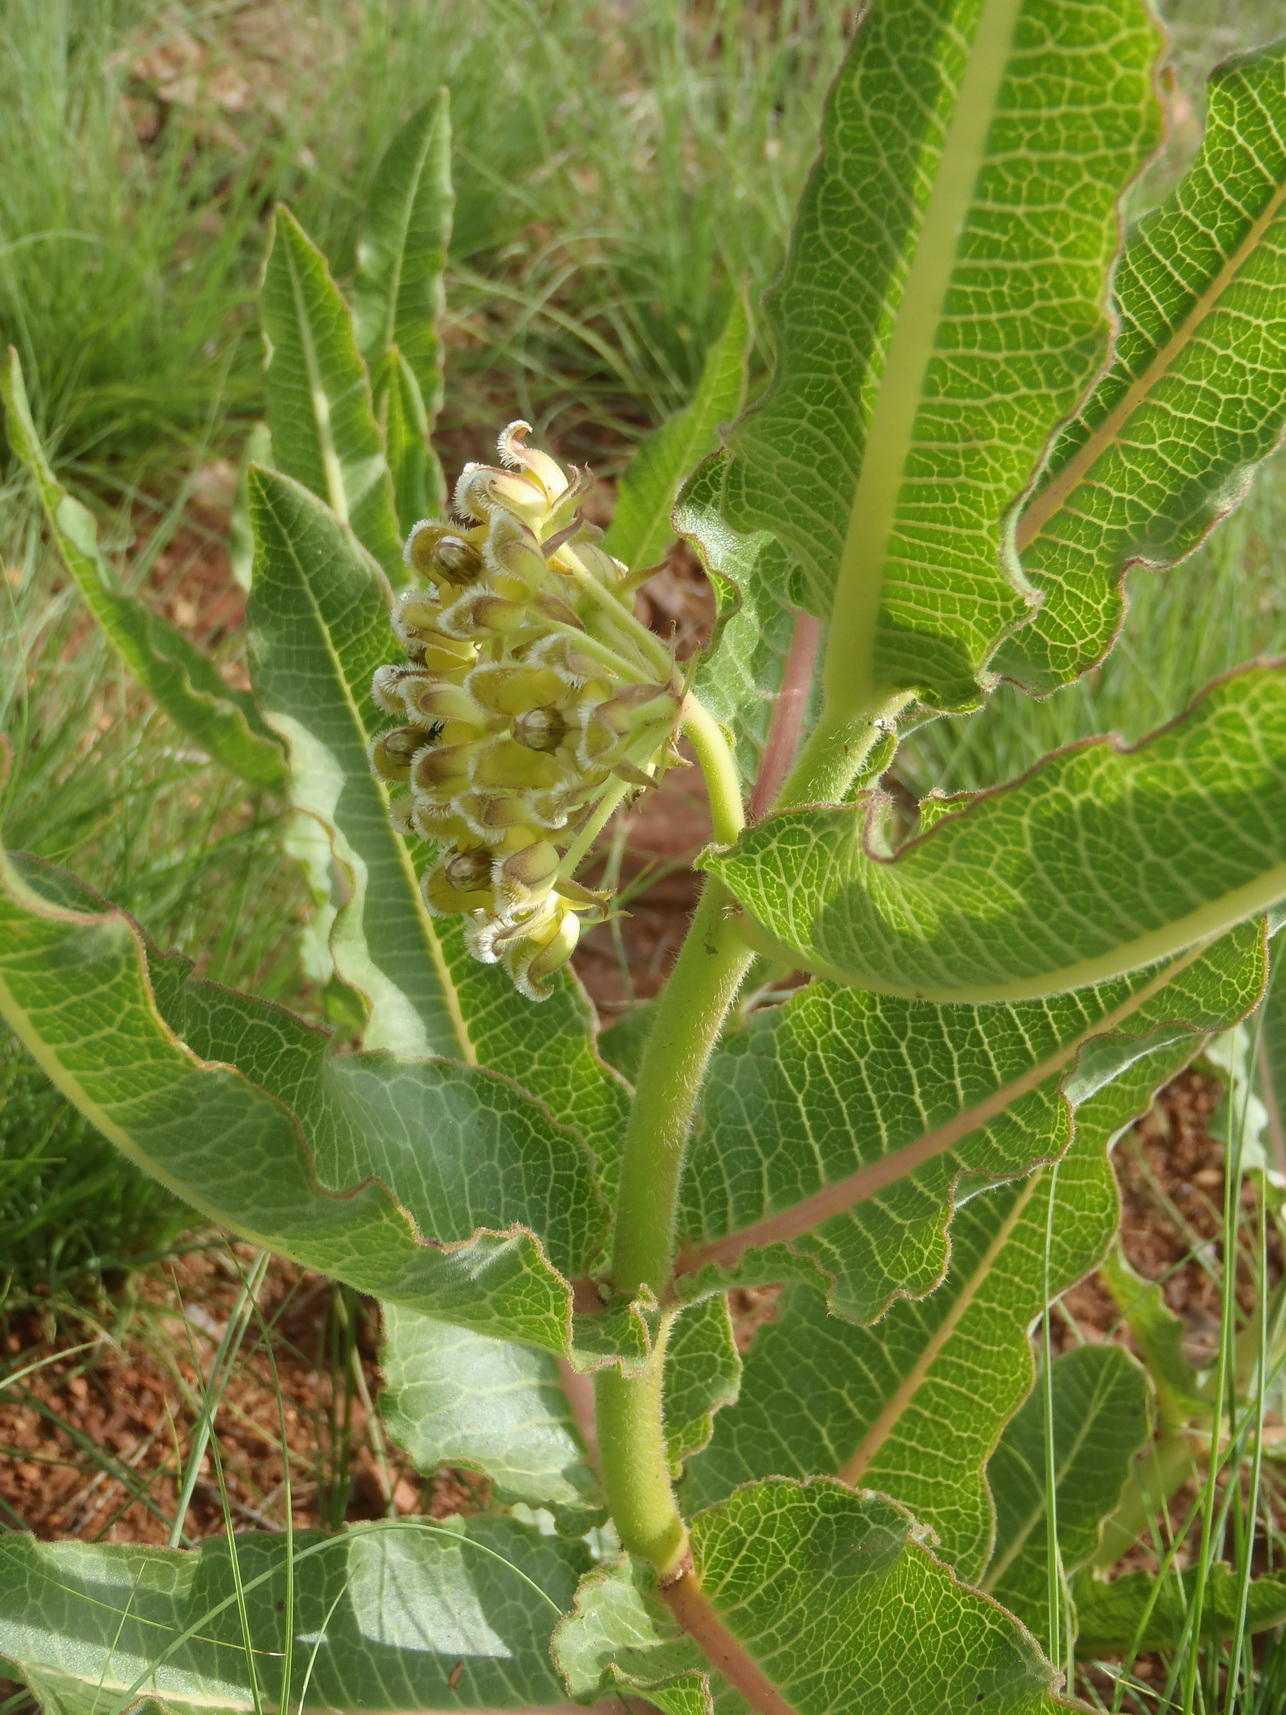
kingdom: Plantae
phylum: Tracheophyta
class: Magnoliopsida
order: Gentianales
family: Apocynaceae
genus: Xysmalobium
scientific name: Xysmalobium undulatum
